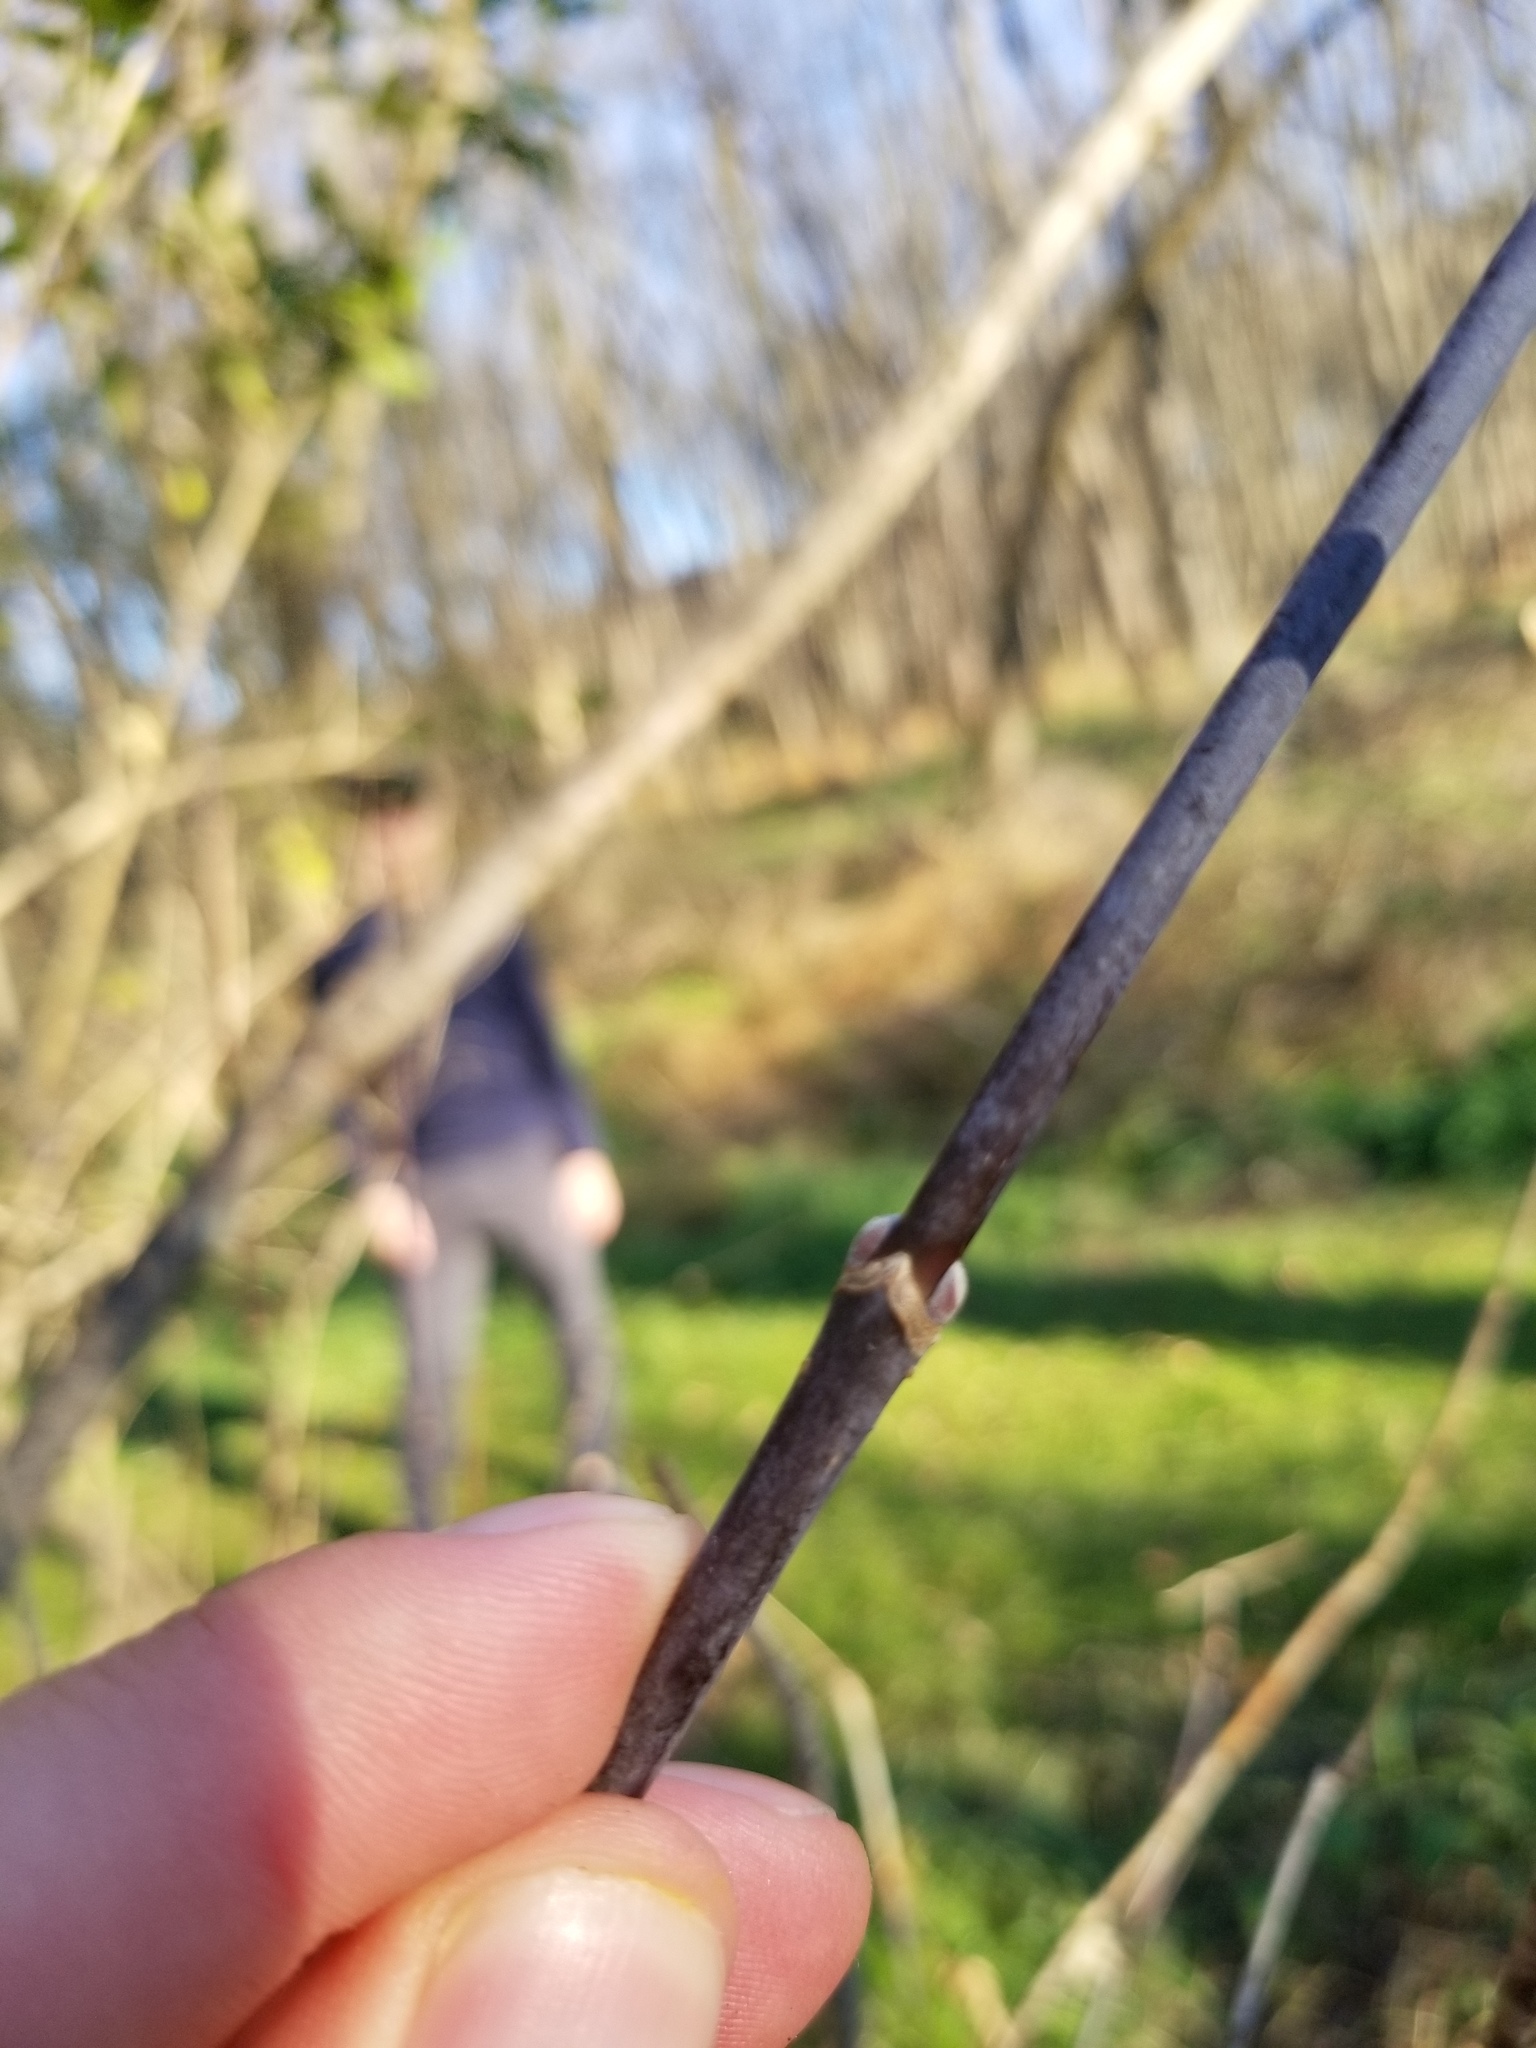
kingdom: Plantae
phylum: Tracheophyta
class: Magnoliopsida
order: Sapindales
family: Sapindaceae
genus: Acer
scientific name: Acer negundo
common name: Ashleaf maple
